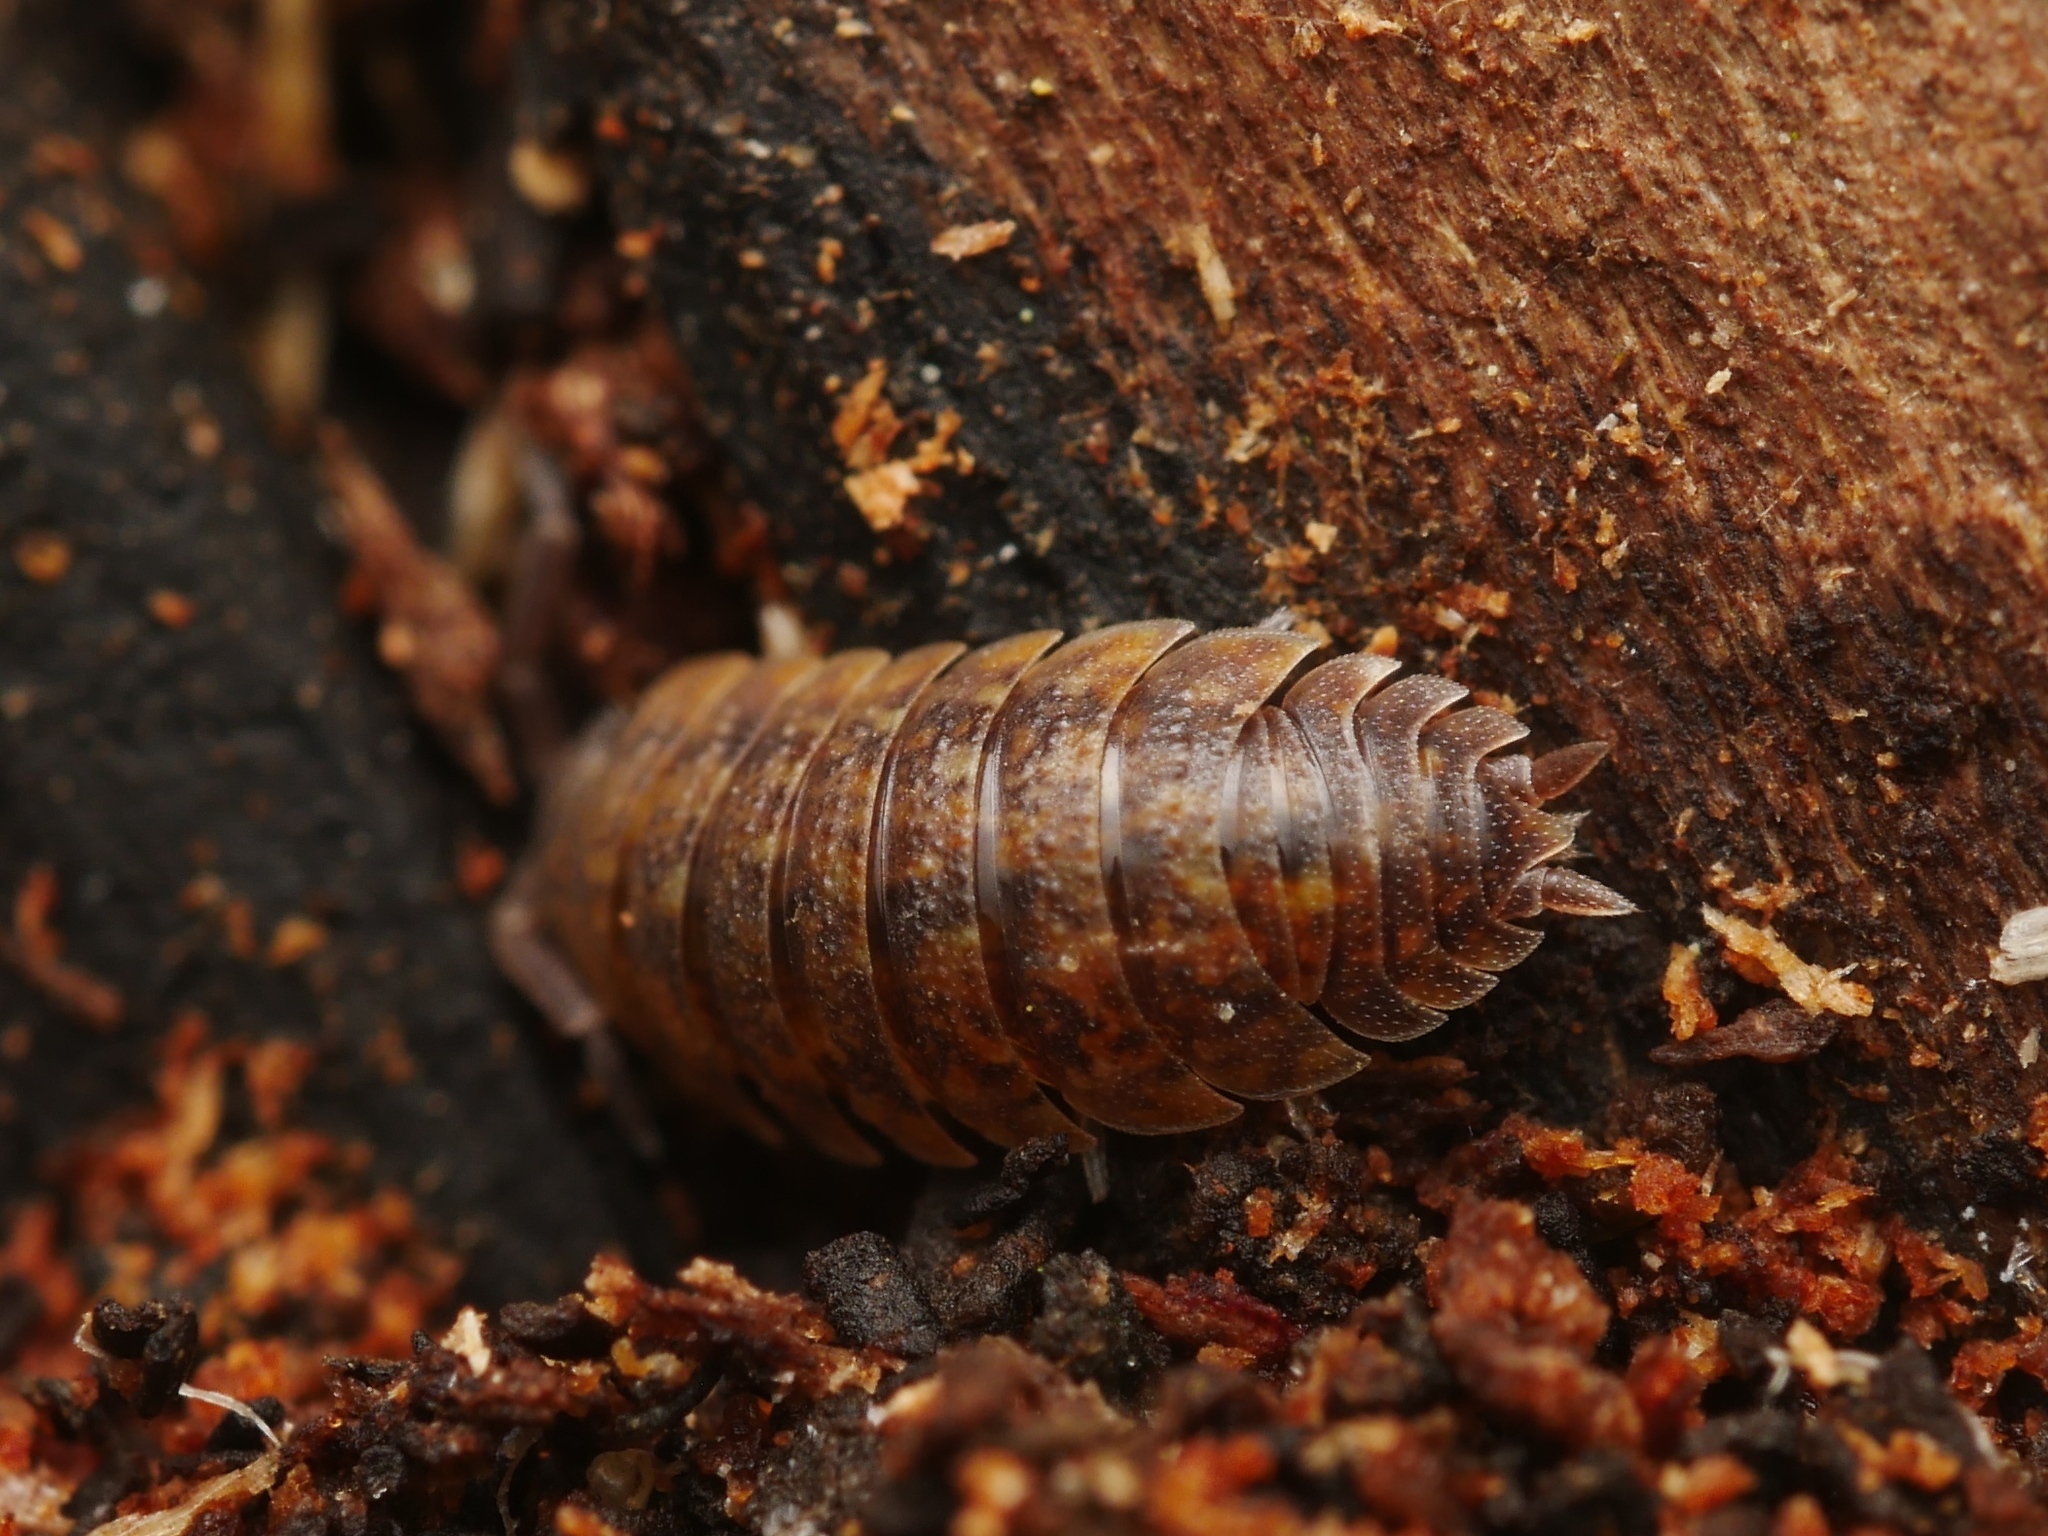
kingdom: Animalia
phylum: Arthropoda
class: Malacostraca
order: Isopoda
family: Porcellionidae
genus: Porcellio
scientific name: Porcellio scaber
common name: Common rough woodlouse
